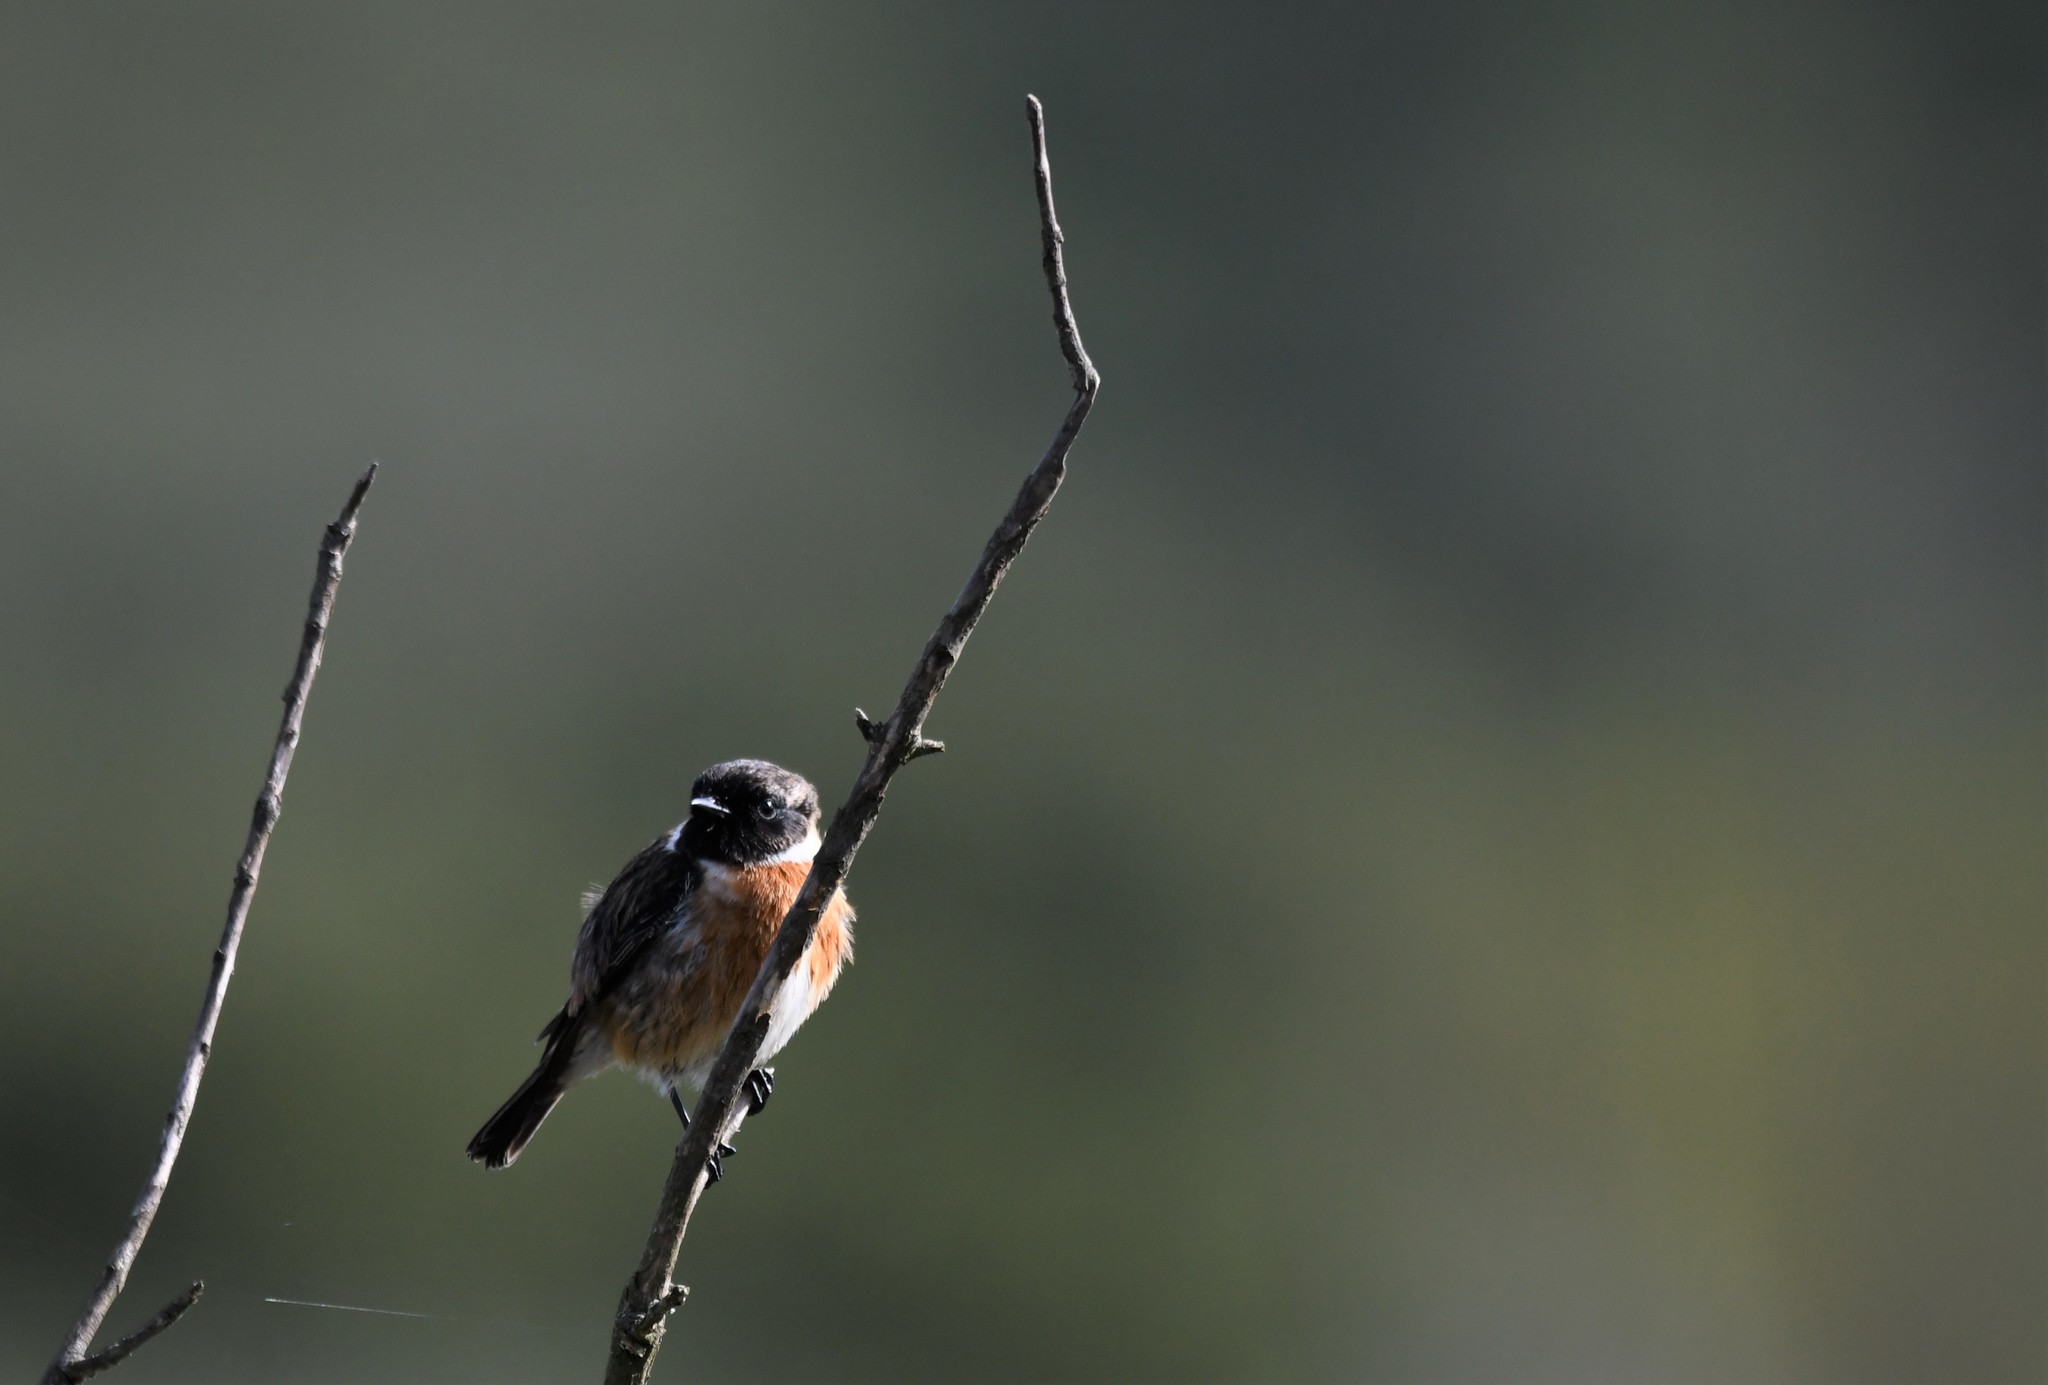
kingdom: Animalia
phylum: Chordata
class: Aves
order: Passeriformes
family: Muscicapidae
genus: Saxicola
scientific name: Saxicola rubicola
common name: European stonechat
